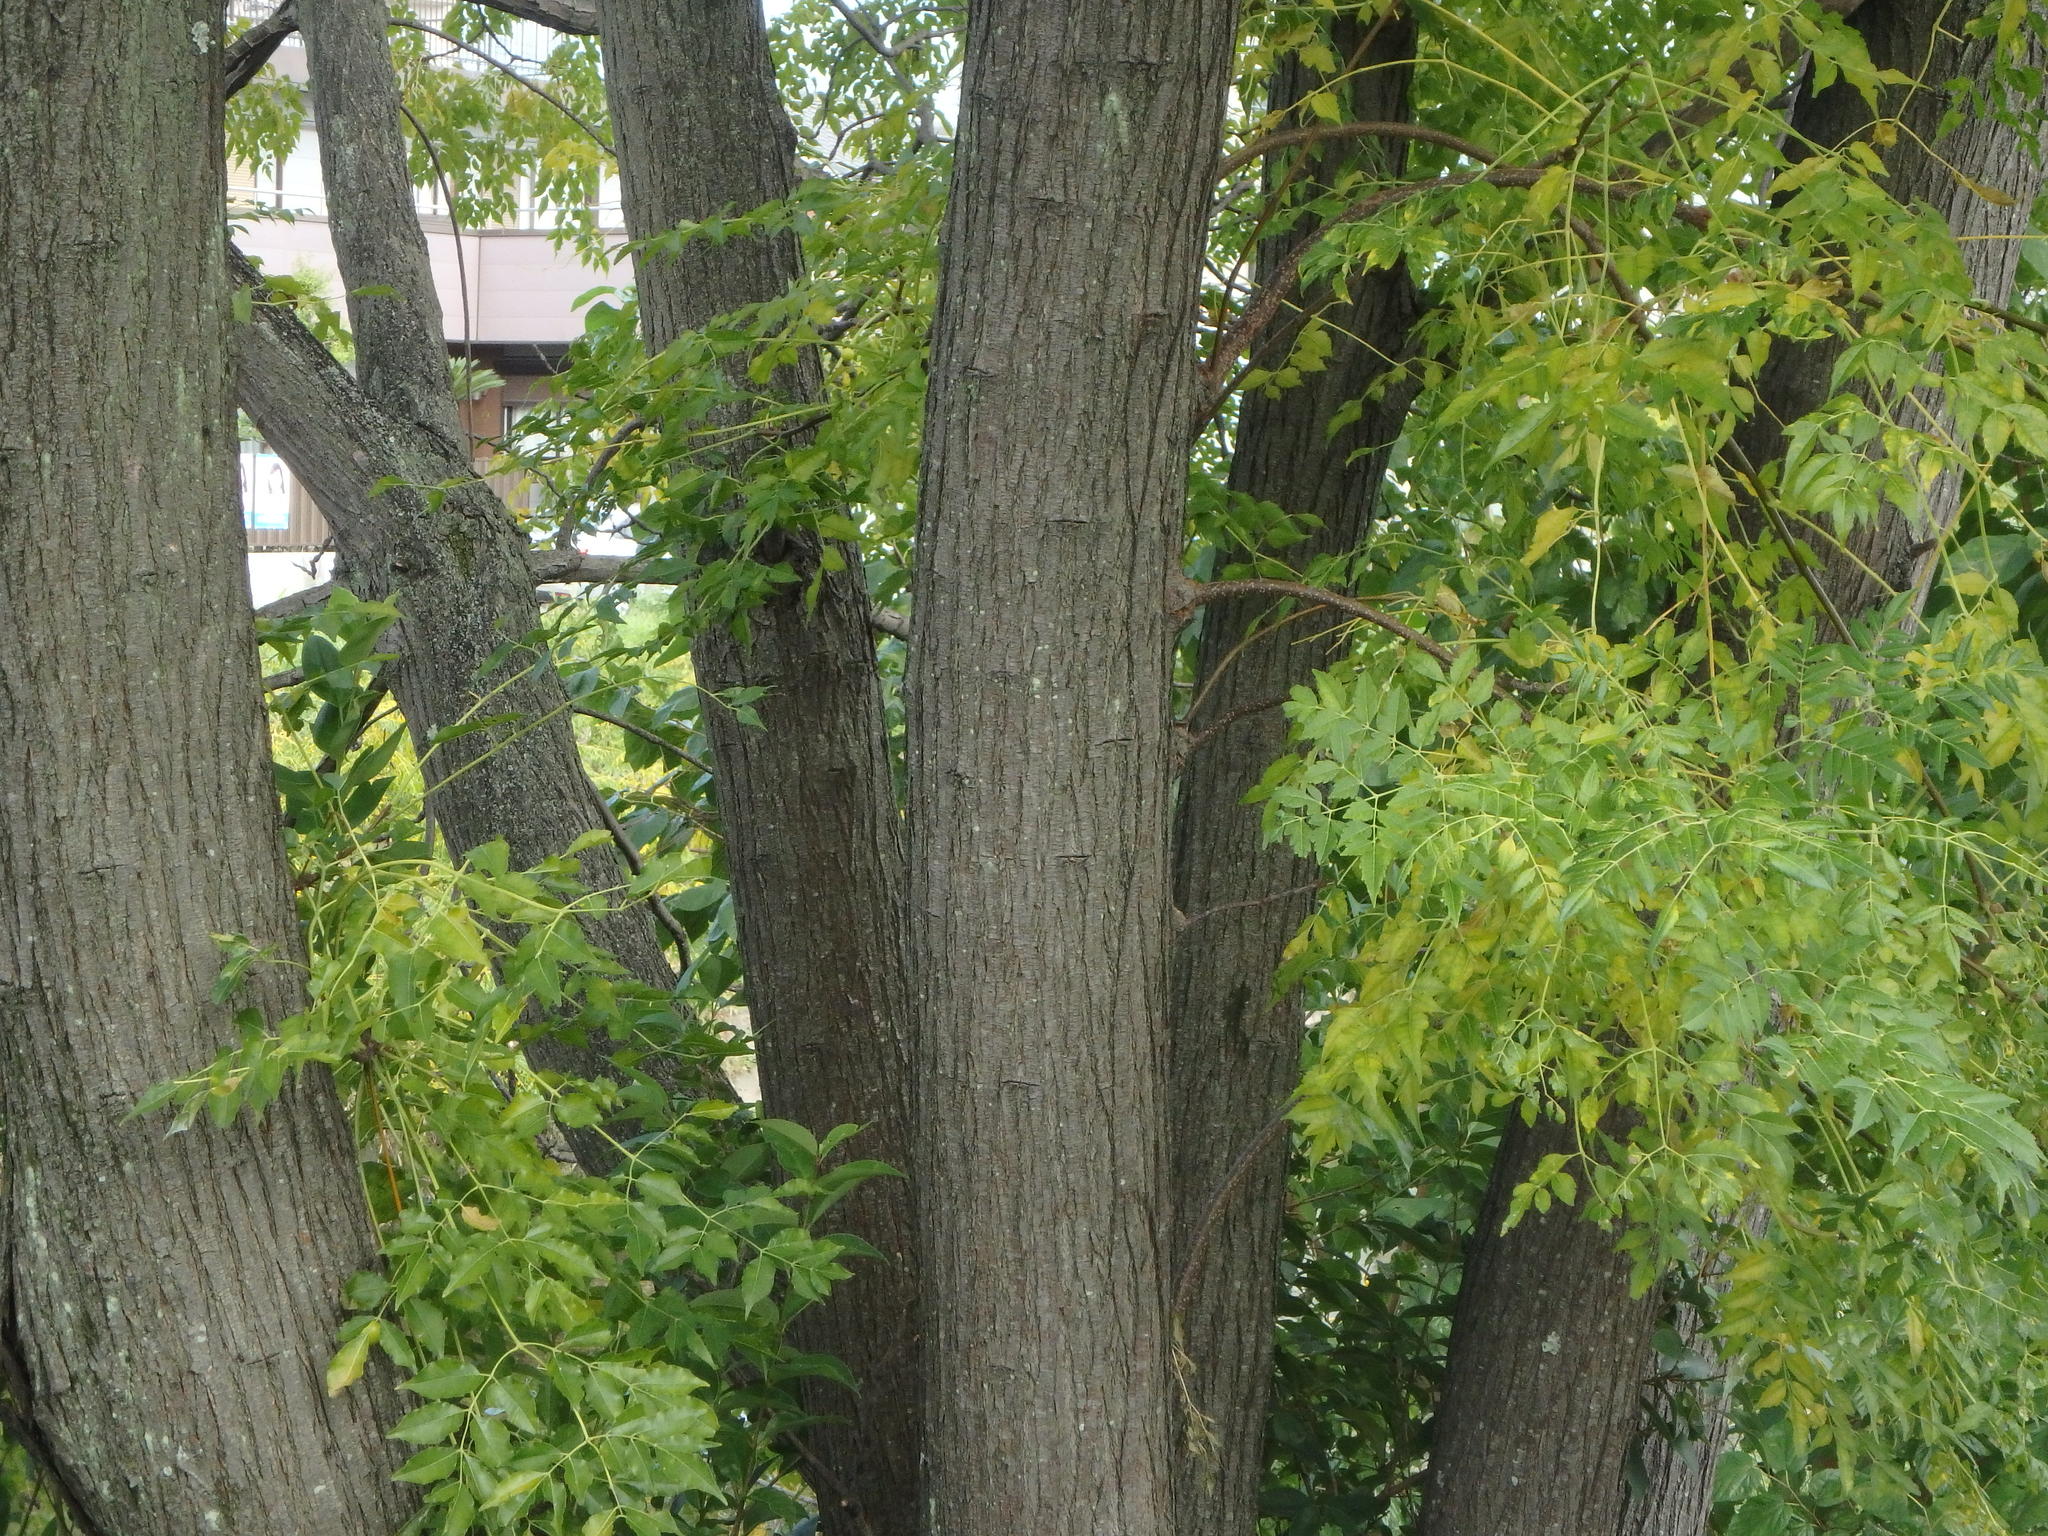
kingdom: Plantae
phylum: Tracheophyta
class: Magnoliopsida
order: Sapindales
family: Meliaceae
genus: Melia
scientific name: Melia azedarach
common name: Chinaberrytree
